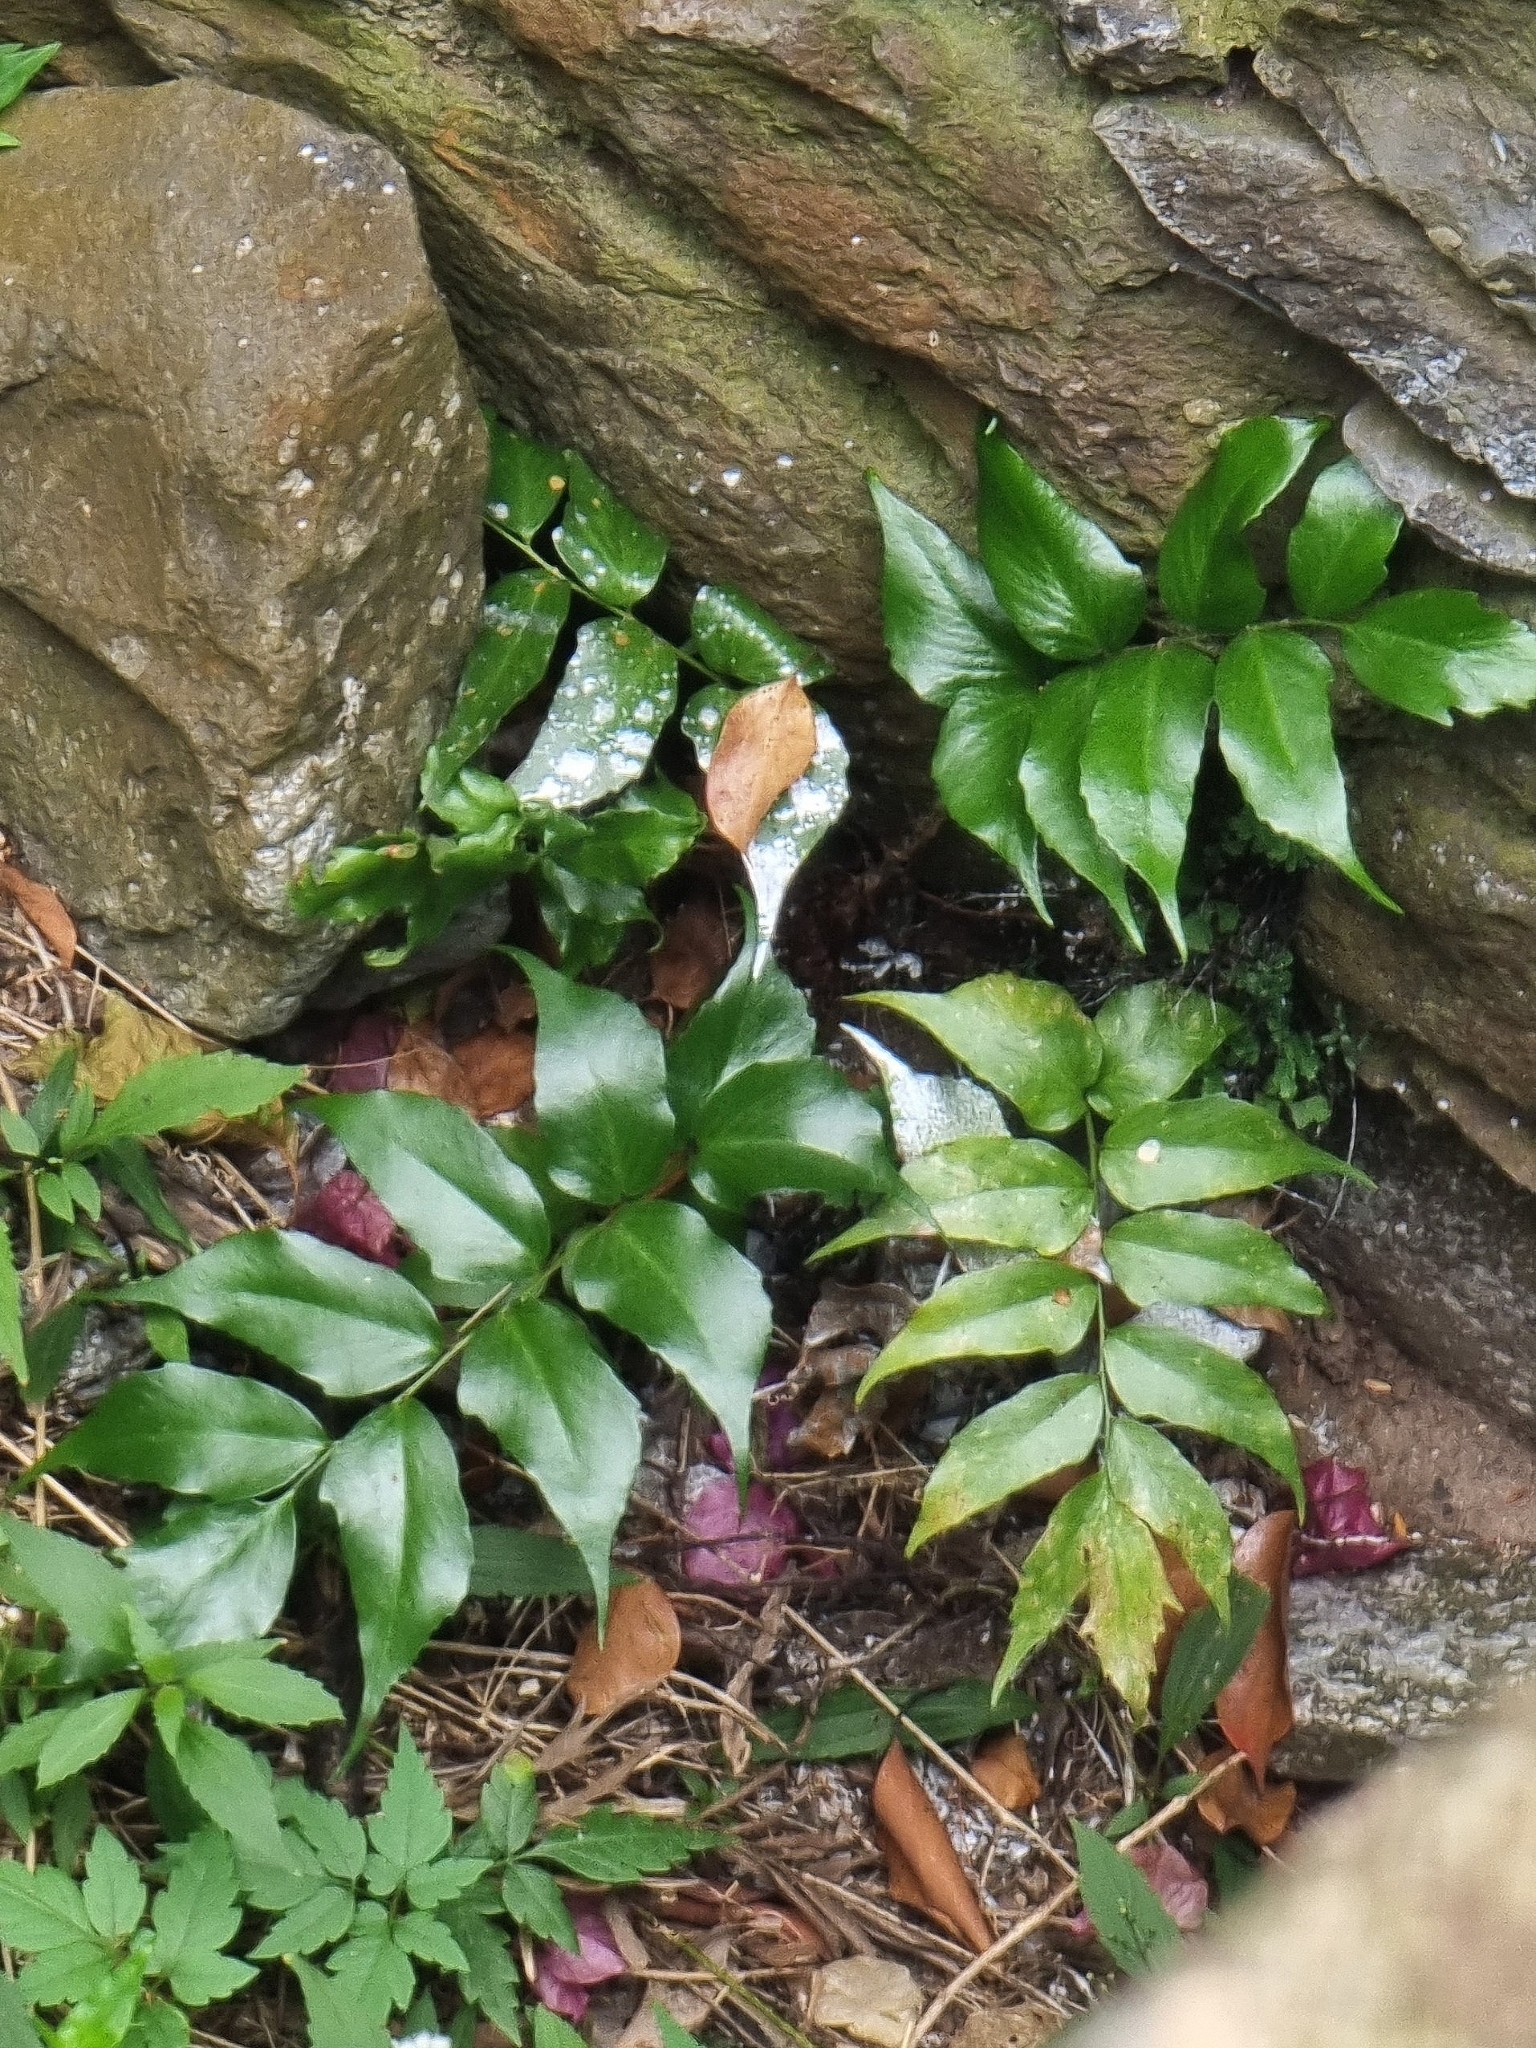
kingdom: Plantae
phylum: Tracheophyta
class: Polypodiopsida
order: Polypodiales
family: Dryopteridaceae
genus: Cyrtomium
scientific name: Cyrtomium falcatum
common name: House holly-fern
